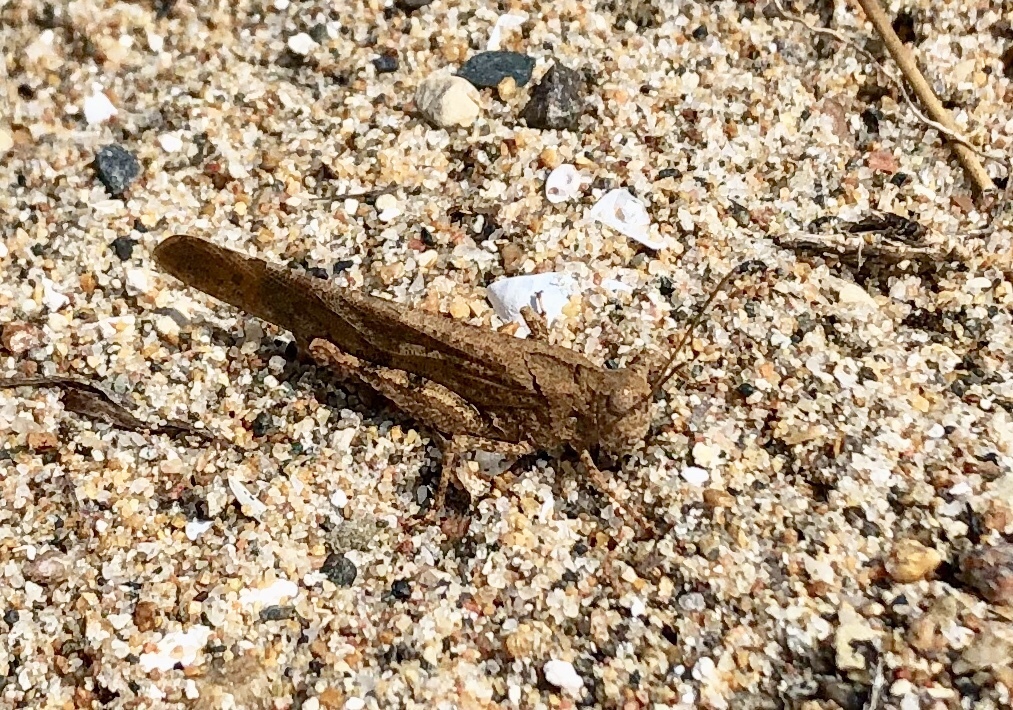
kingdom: Animalia
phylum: Arthropoda
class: Insecta
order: Orthoptera
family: Acrididae
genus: Dissosteira
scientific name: Dissosteira carolina
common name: Carolina grasshopper
